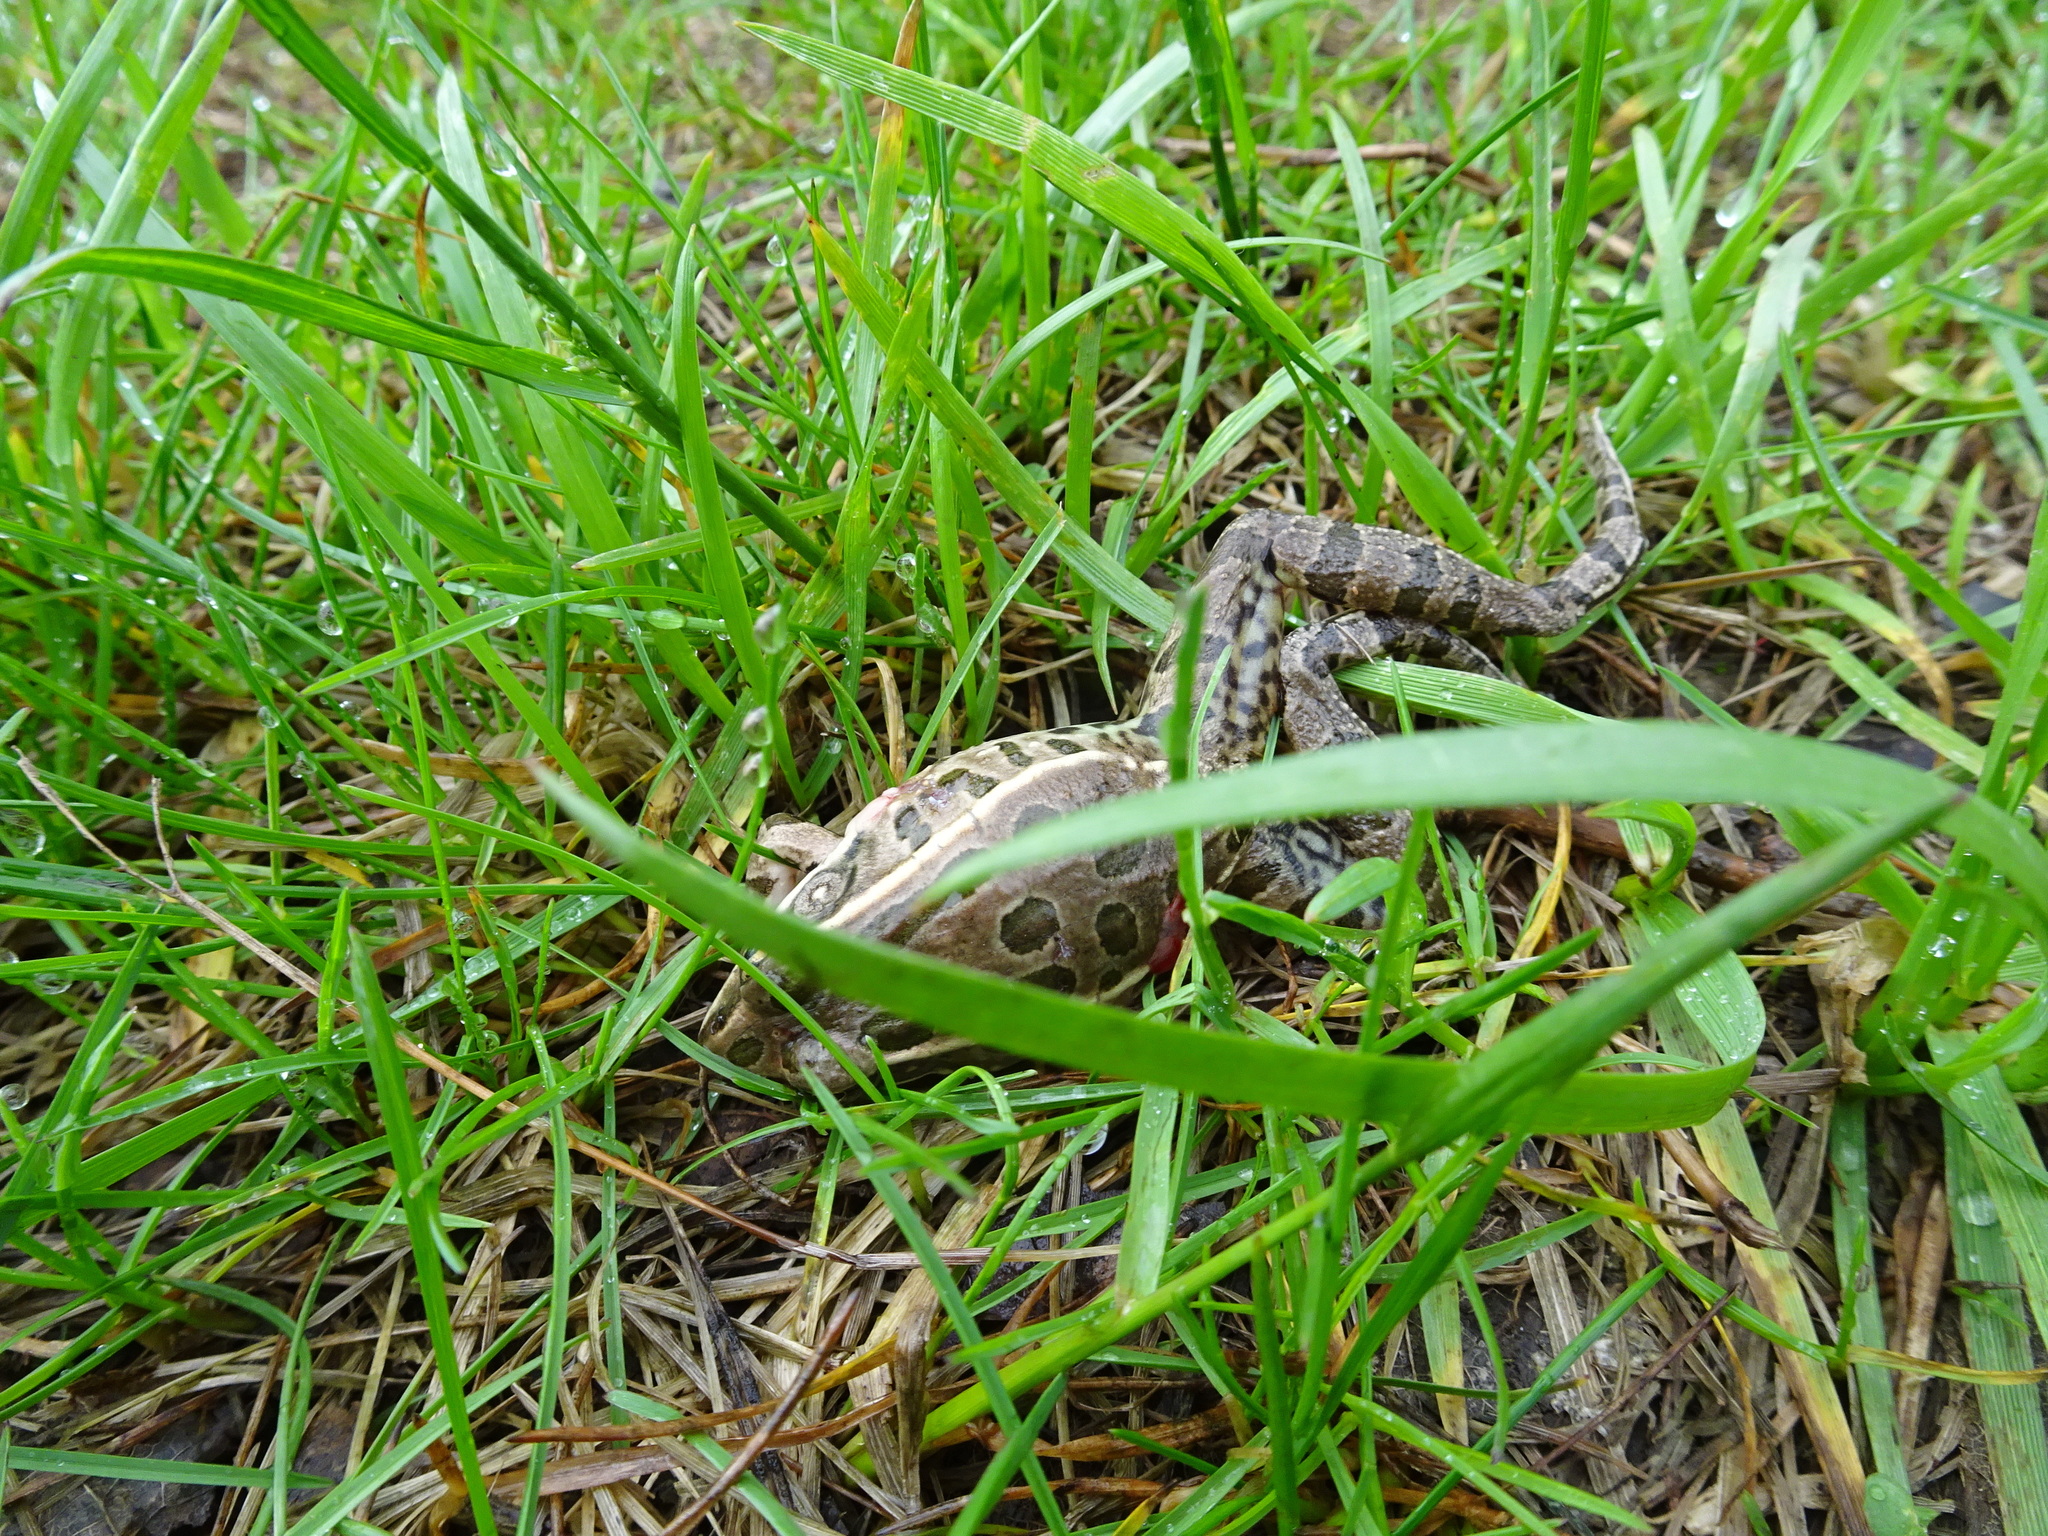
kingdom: Animalia
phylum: Chordata
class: Amphibia
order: Anura
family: Ranidae
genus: Lithobates
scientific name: Lithobates blairi
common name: Plains leopard frog
